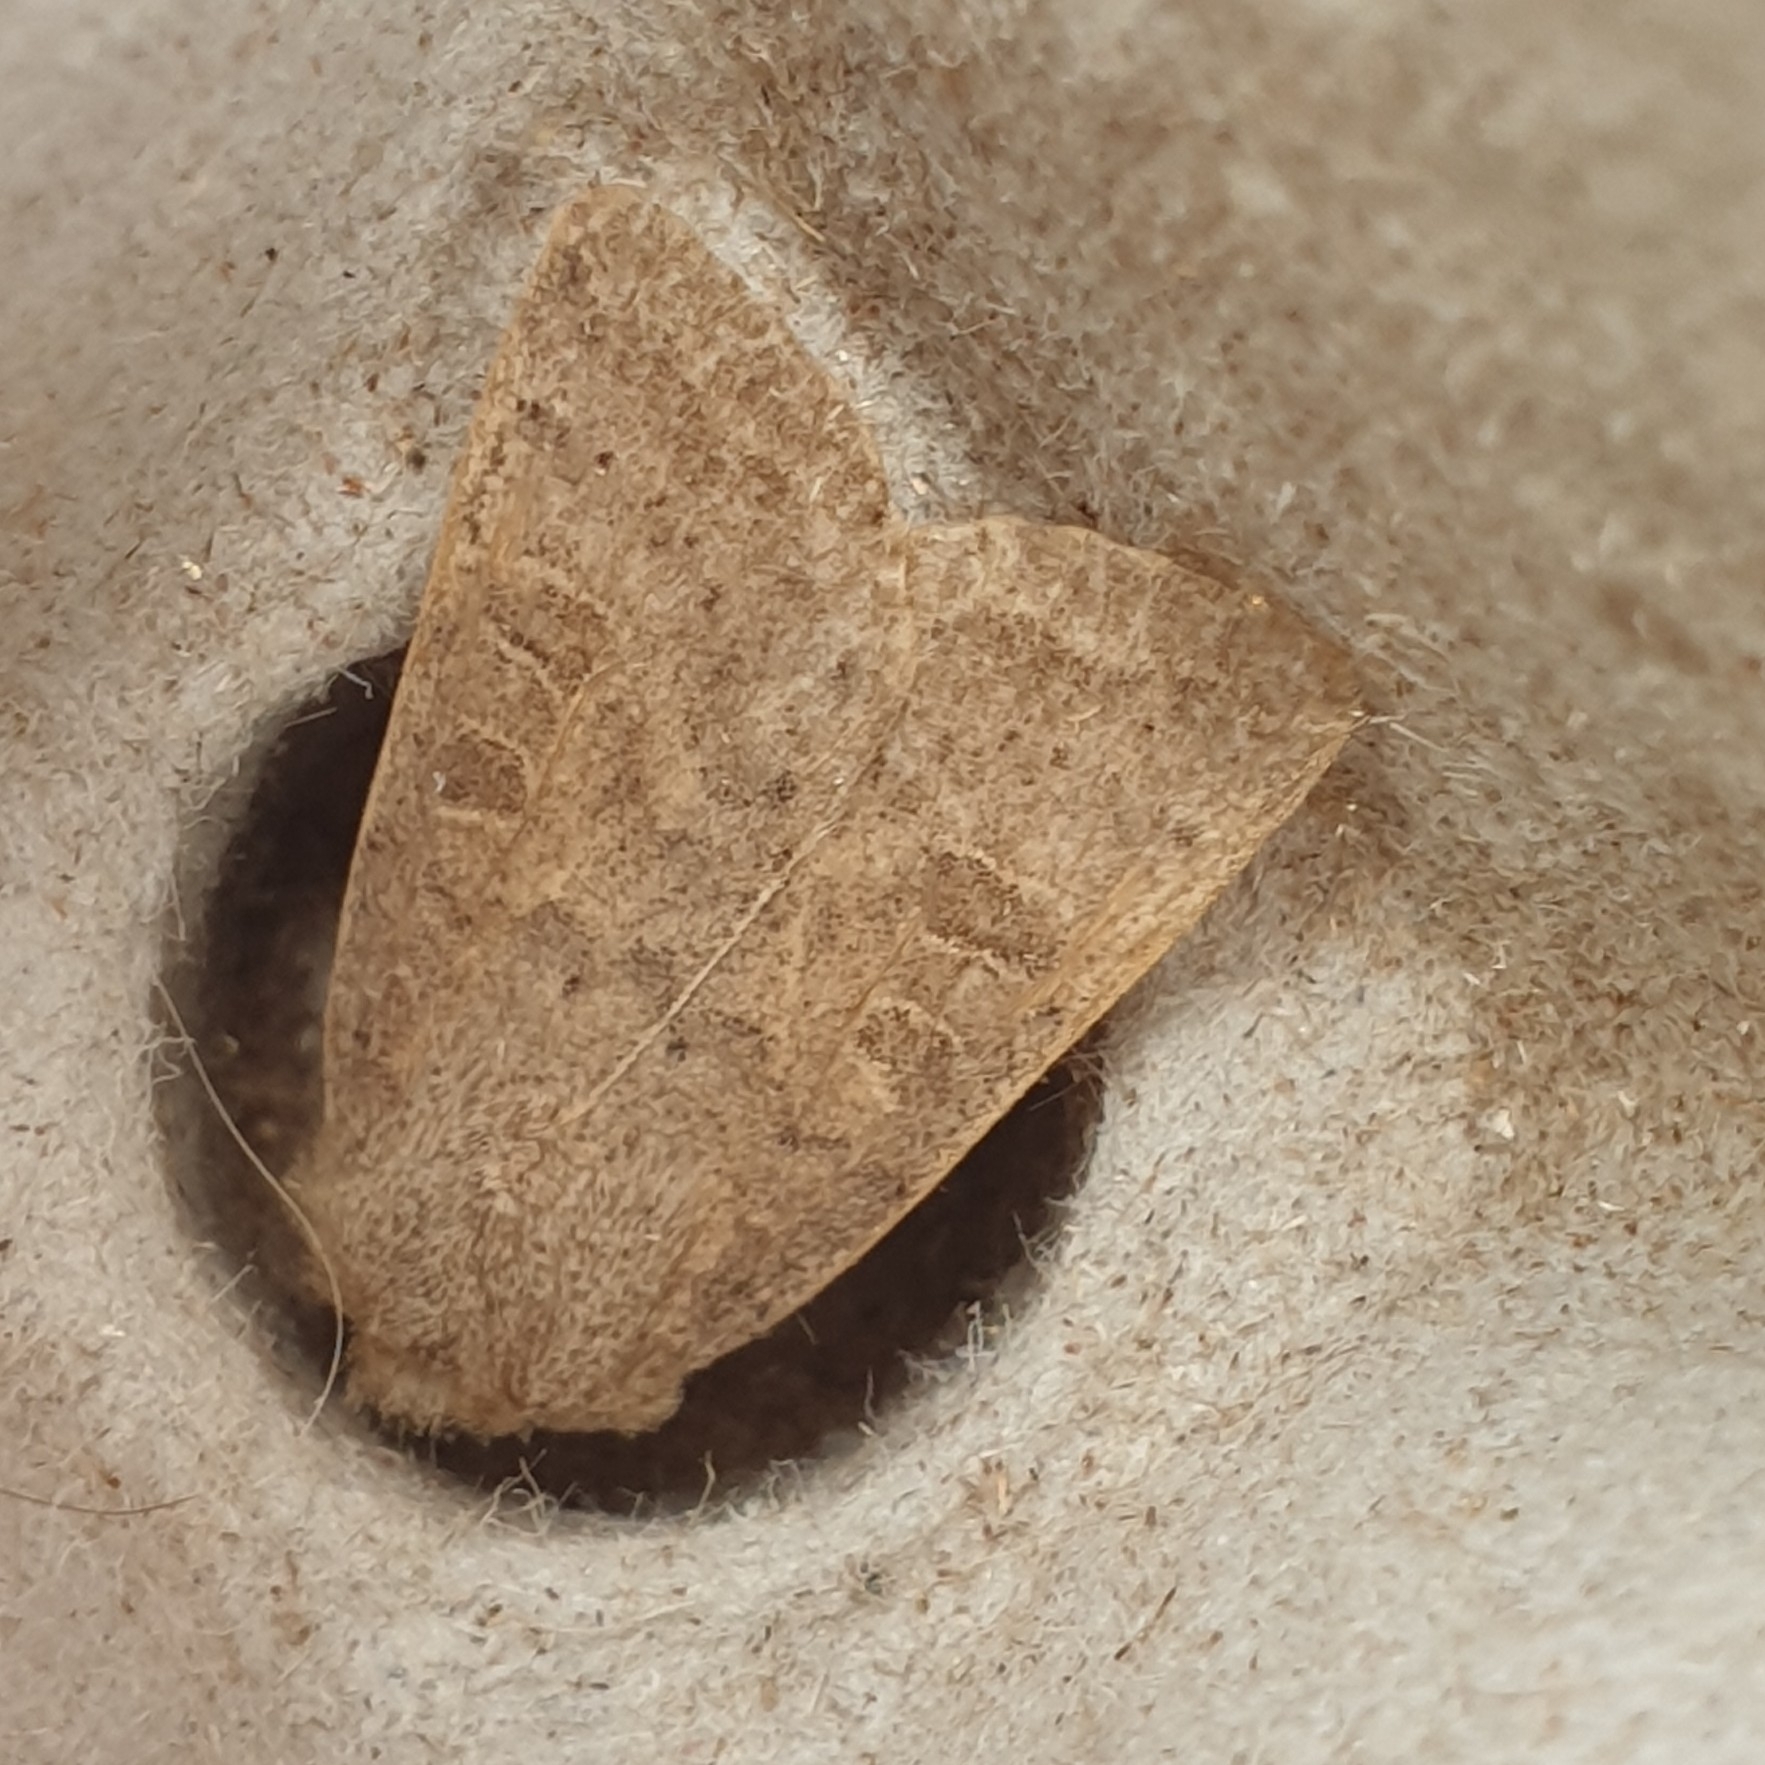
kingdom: Animalia
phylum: Arthropoda
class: Insecta
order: Lepidoptera
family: Noctuidae
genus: Hoplodrina
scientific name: Hoplodrina ambigua
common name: Vine's rustic
